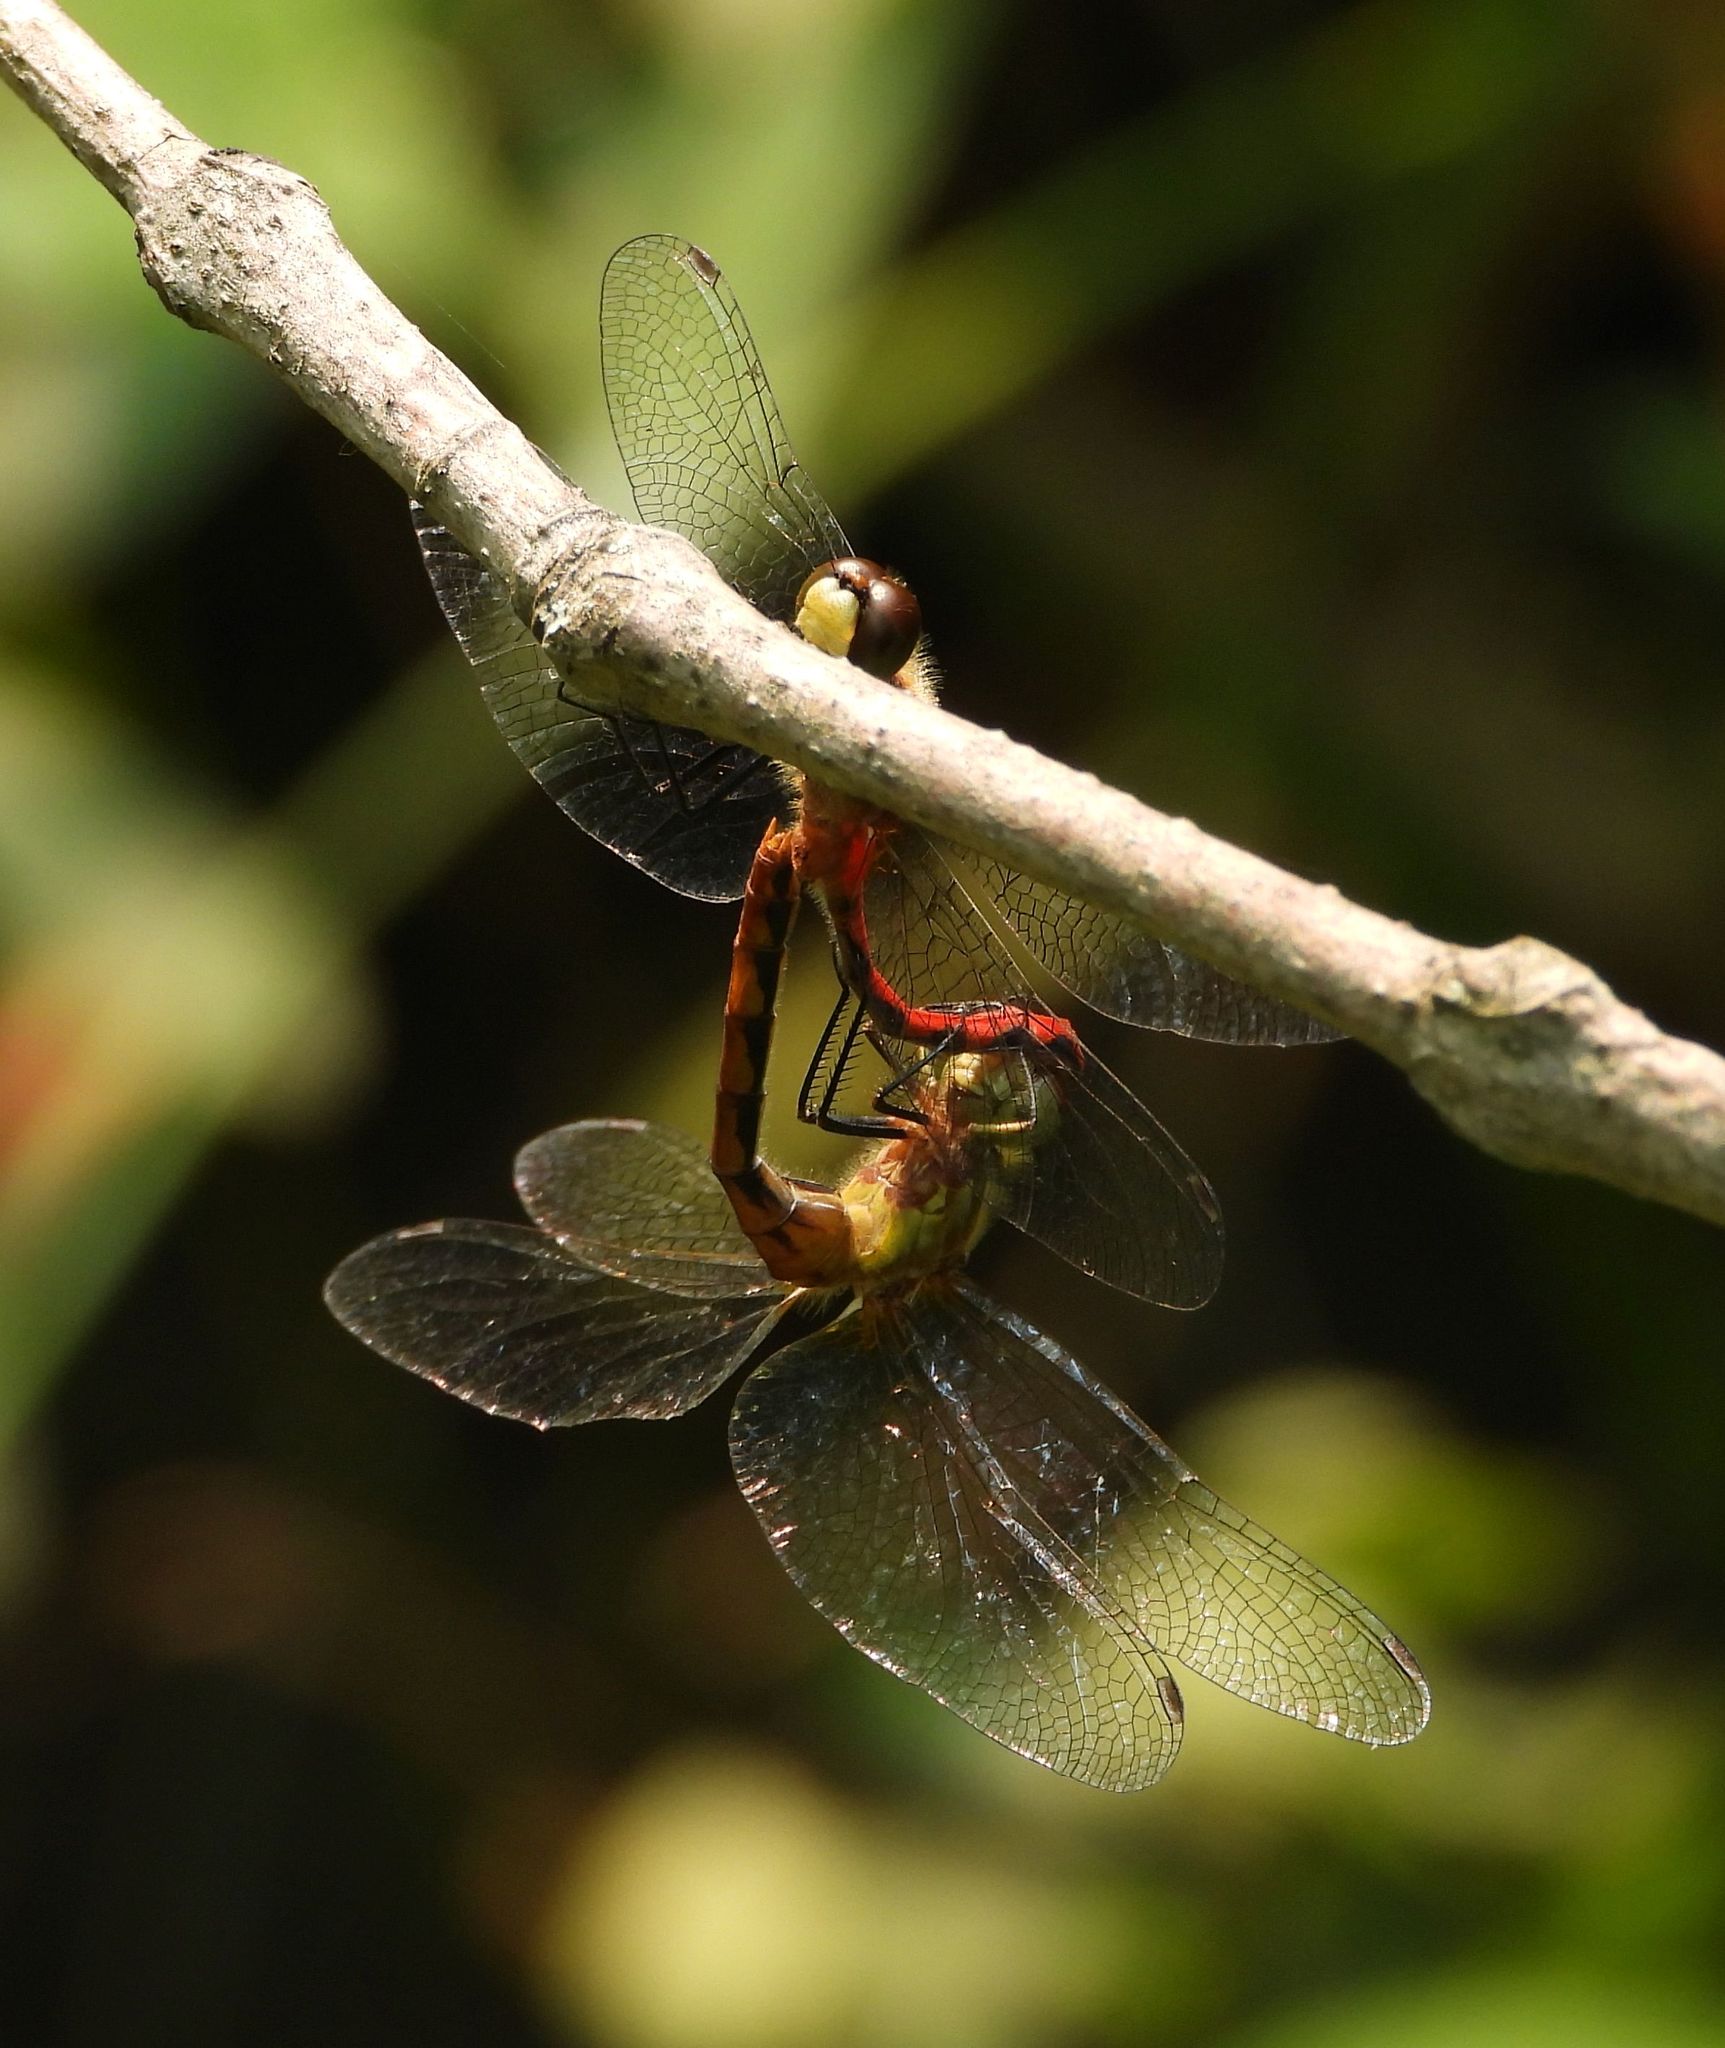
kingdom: Animalia
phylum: Arthropoda
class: Insecta
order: Odonata
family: Libellulidae
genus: Sympetrum
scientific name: Sympetrum obtrusum
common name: White-faced meadowhawk
